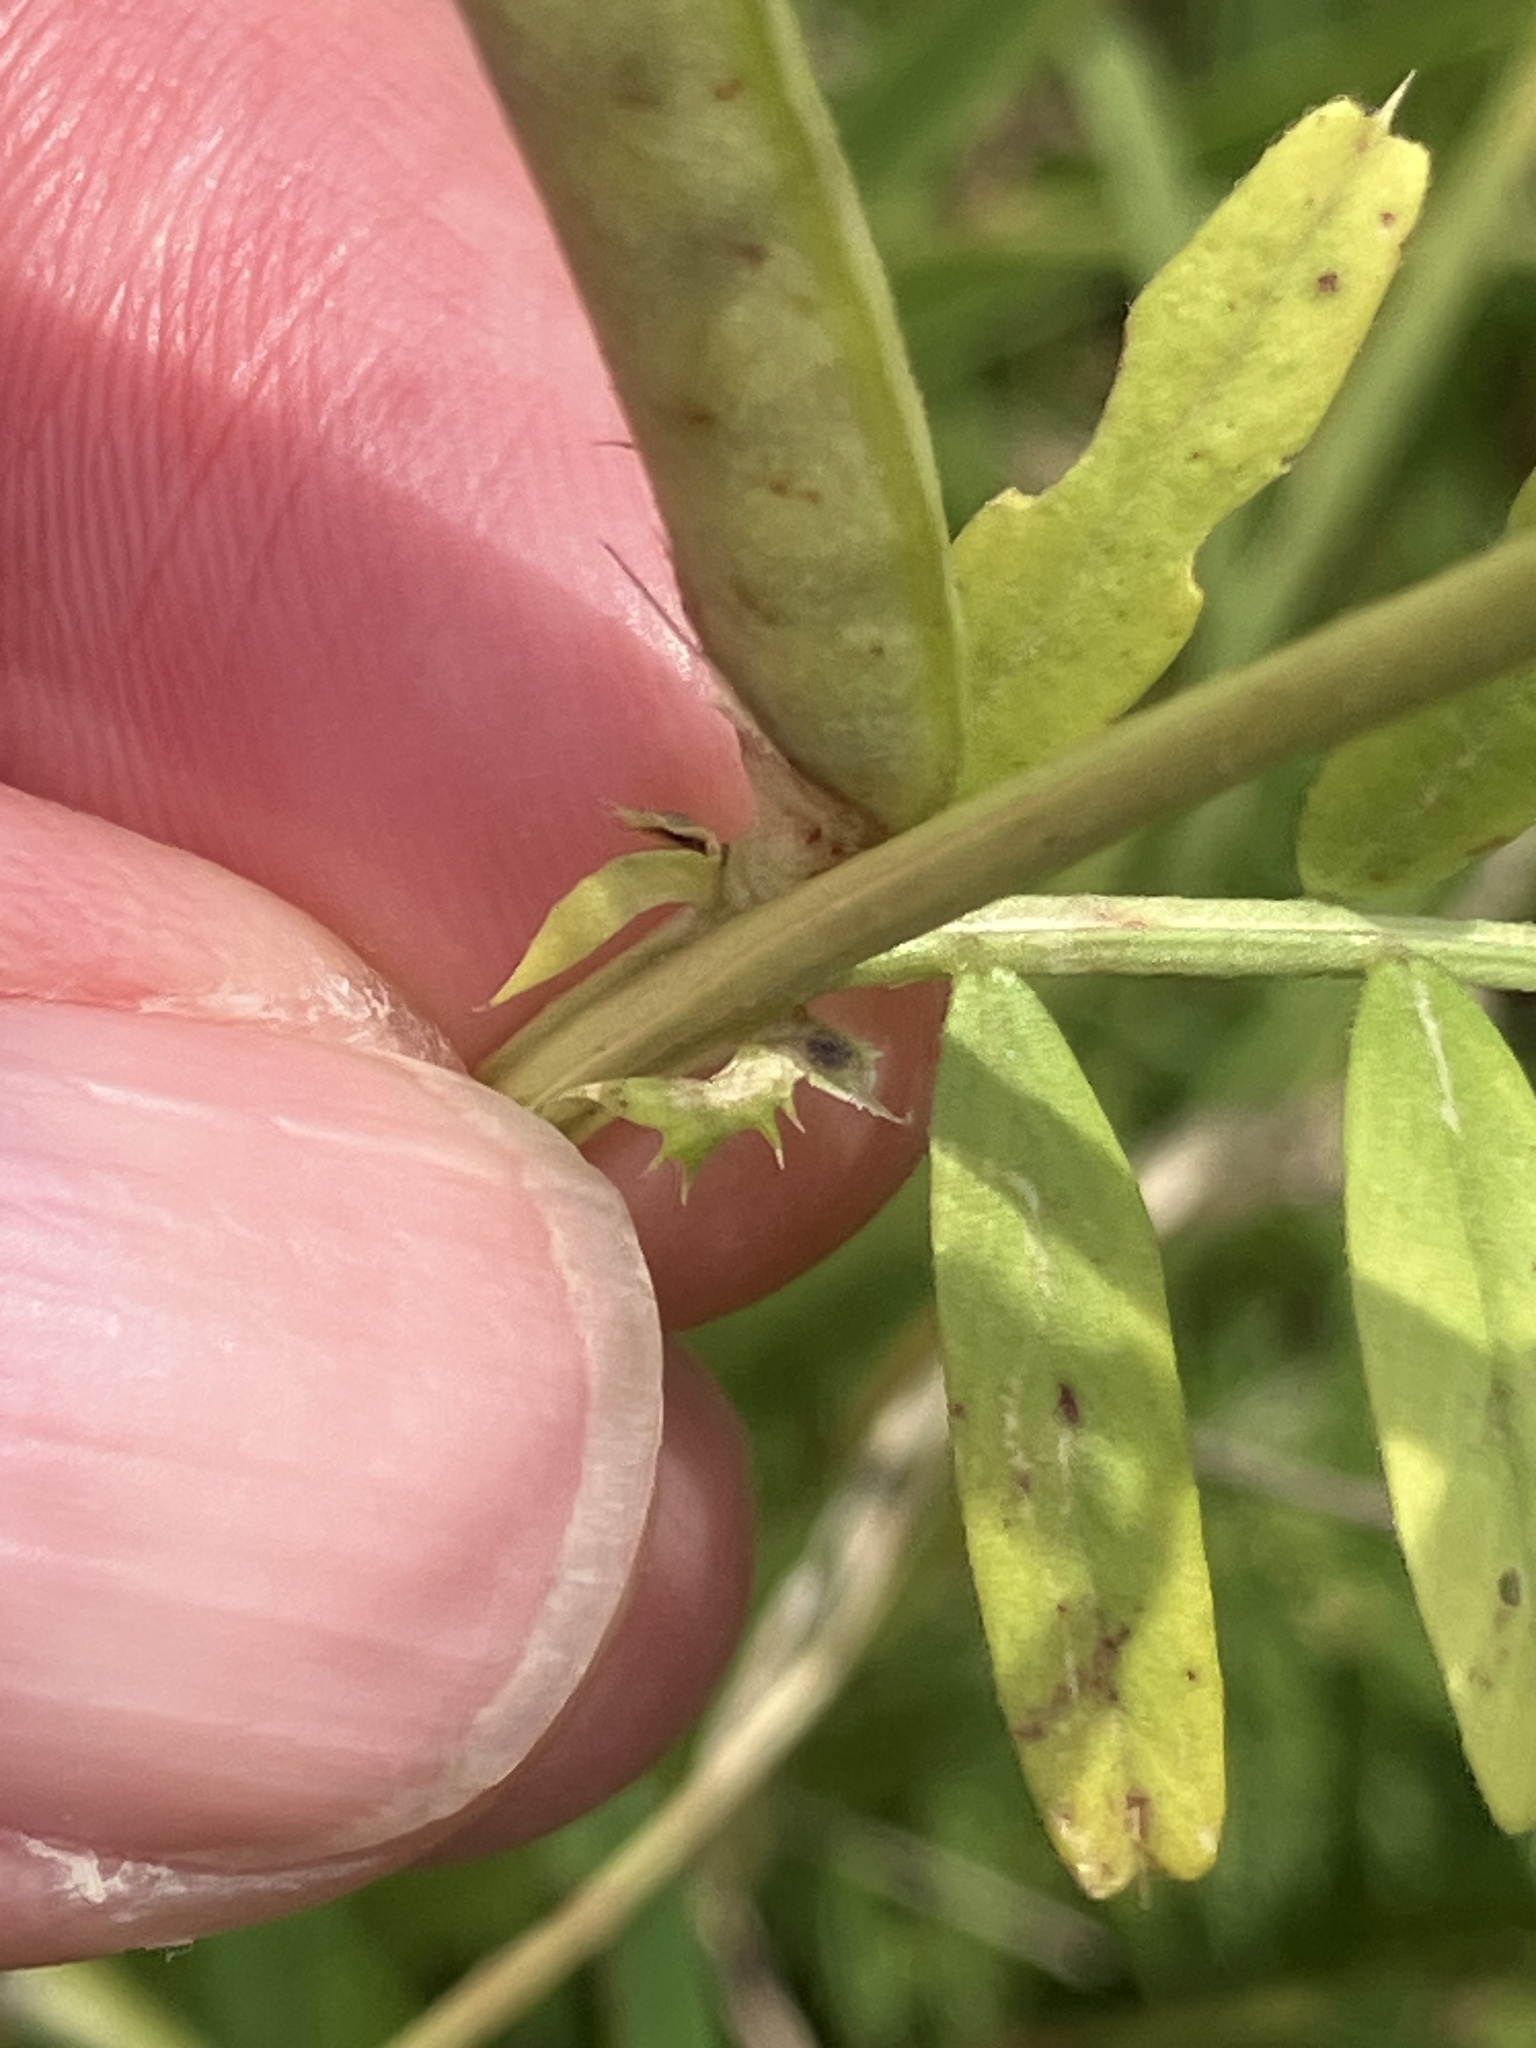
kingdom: Plantae
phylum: Tracheophyta
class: Magnoliopsida
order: Fabales
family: Fabaceae
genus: Vicia
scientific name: Vicia sativa
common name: Garden vetch
